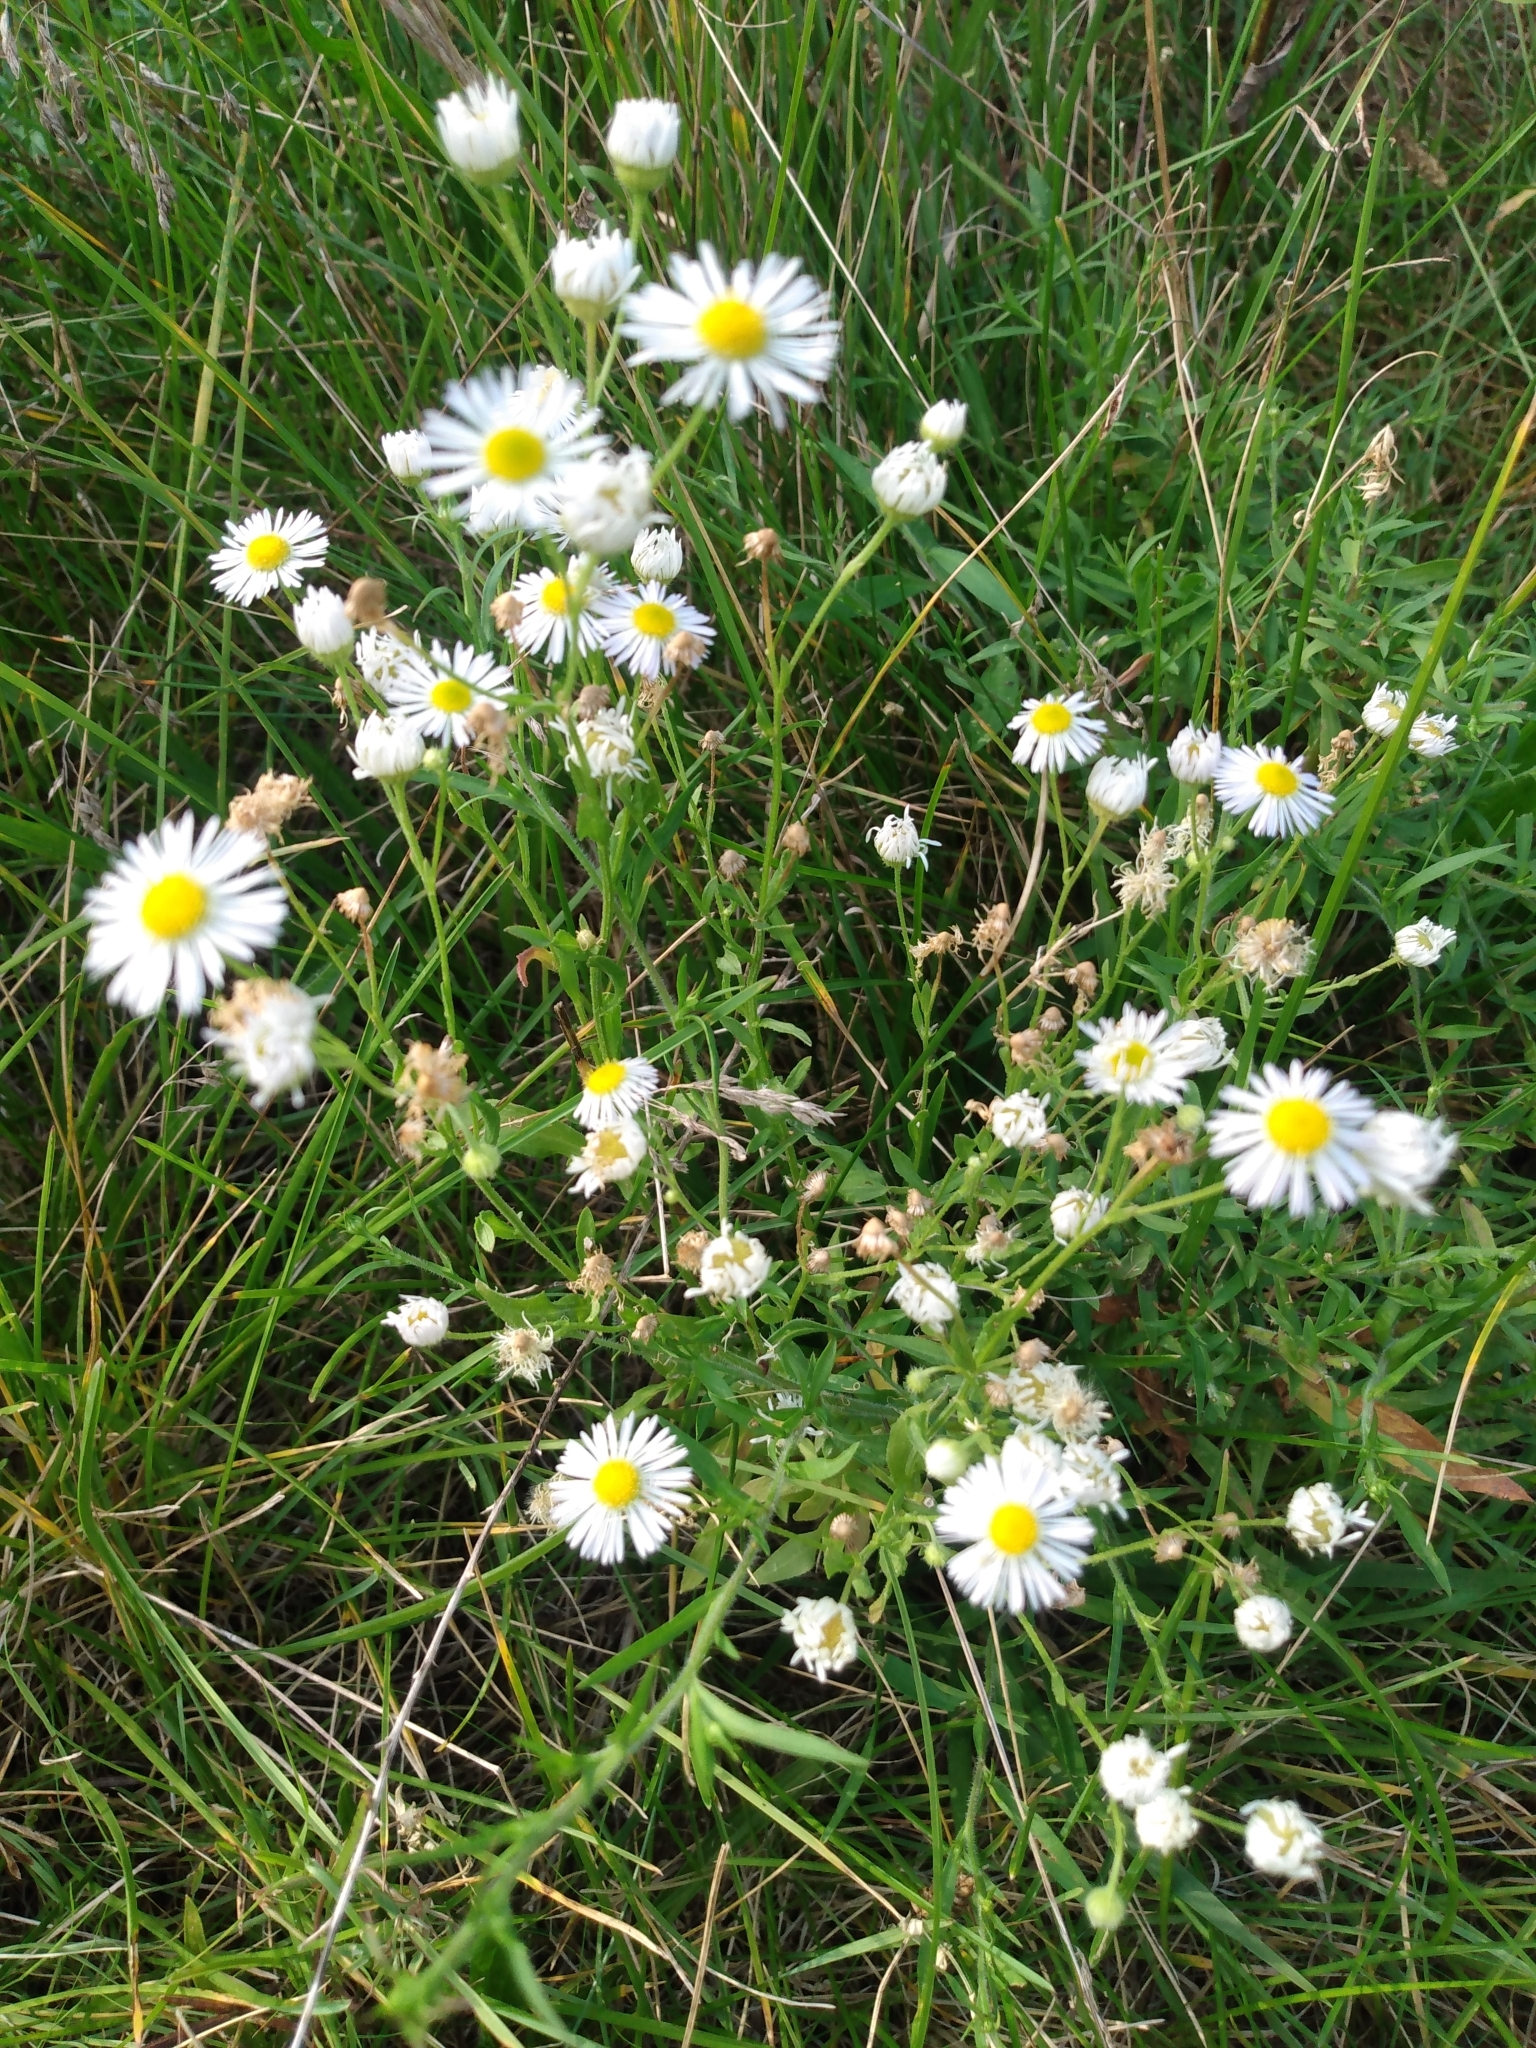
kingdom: Plantae
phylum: Tracheophyta
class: Magnoliopsida
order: Asterales
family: Asteraceae
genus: Erigeron
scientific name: Erigeron strigosus
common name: Common eastern fleabane
